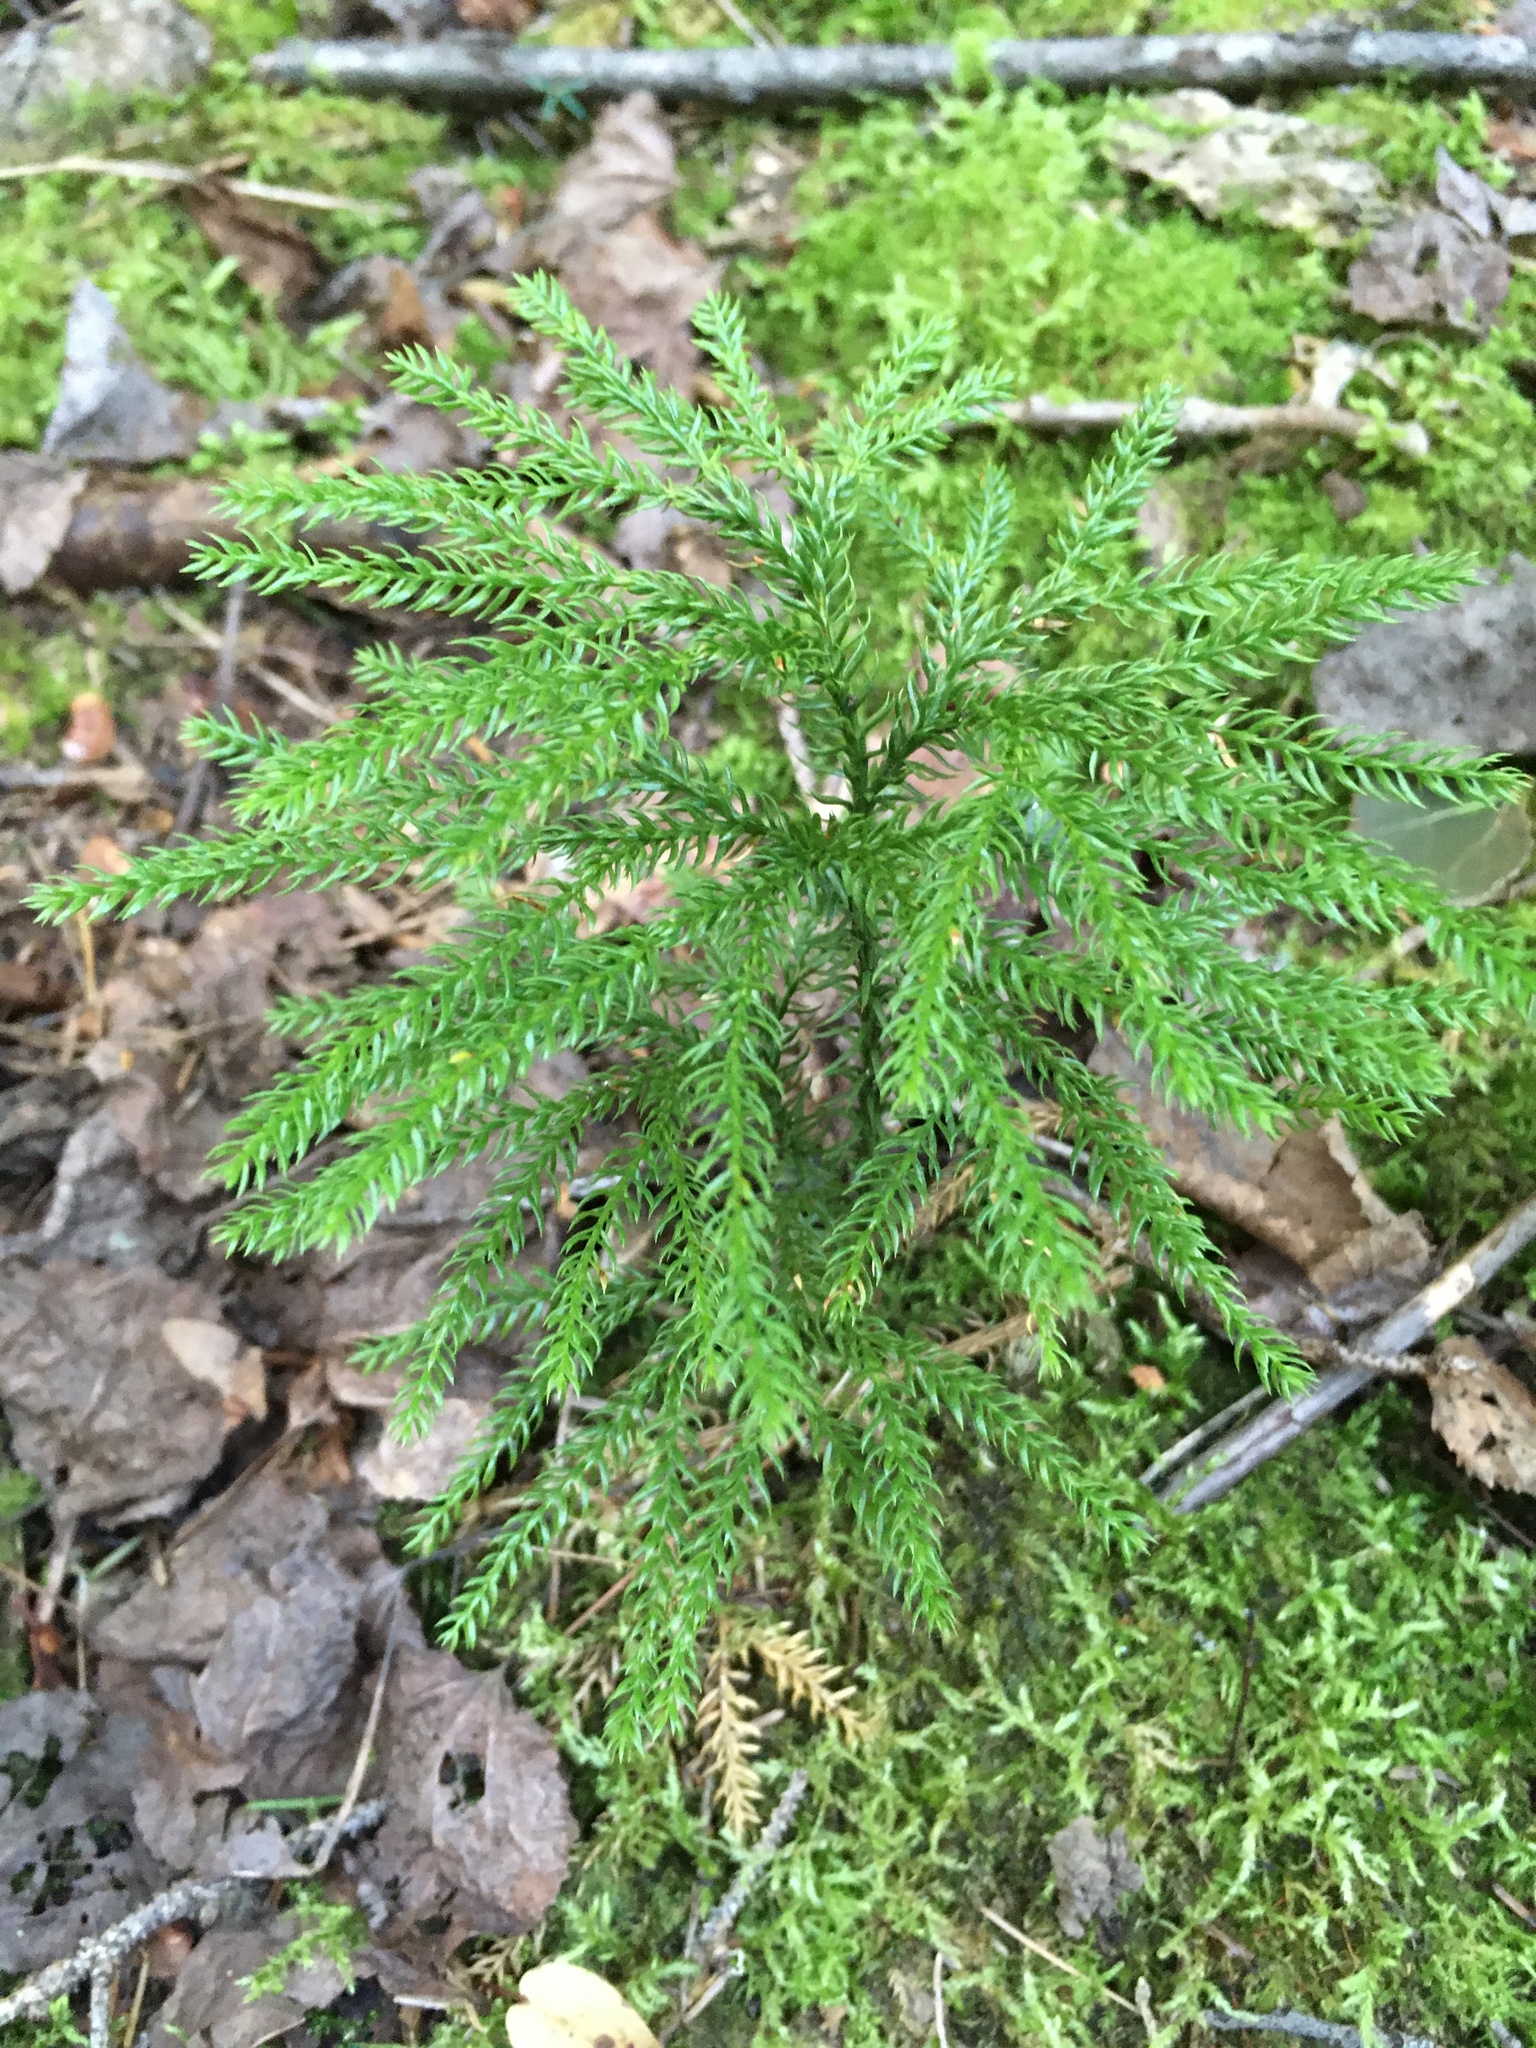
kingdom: Plantae
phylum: Tracheophyta
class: Lycopodiopsida
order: Lycopodiales
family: Lycopodiaceae
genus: Dendrolycopodium
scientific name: Dendrolycopodium dendroideum
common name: Northern tree-clubmoss
